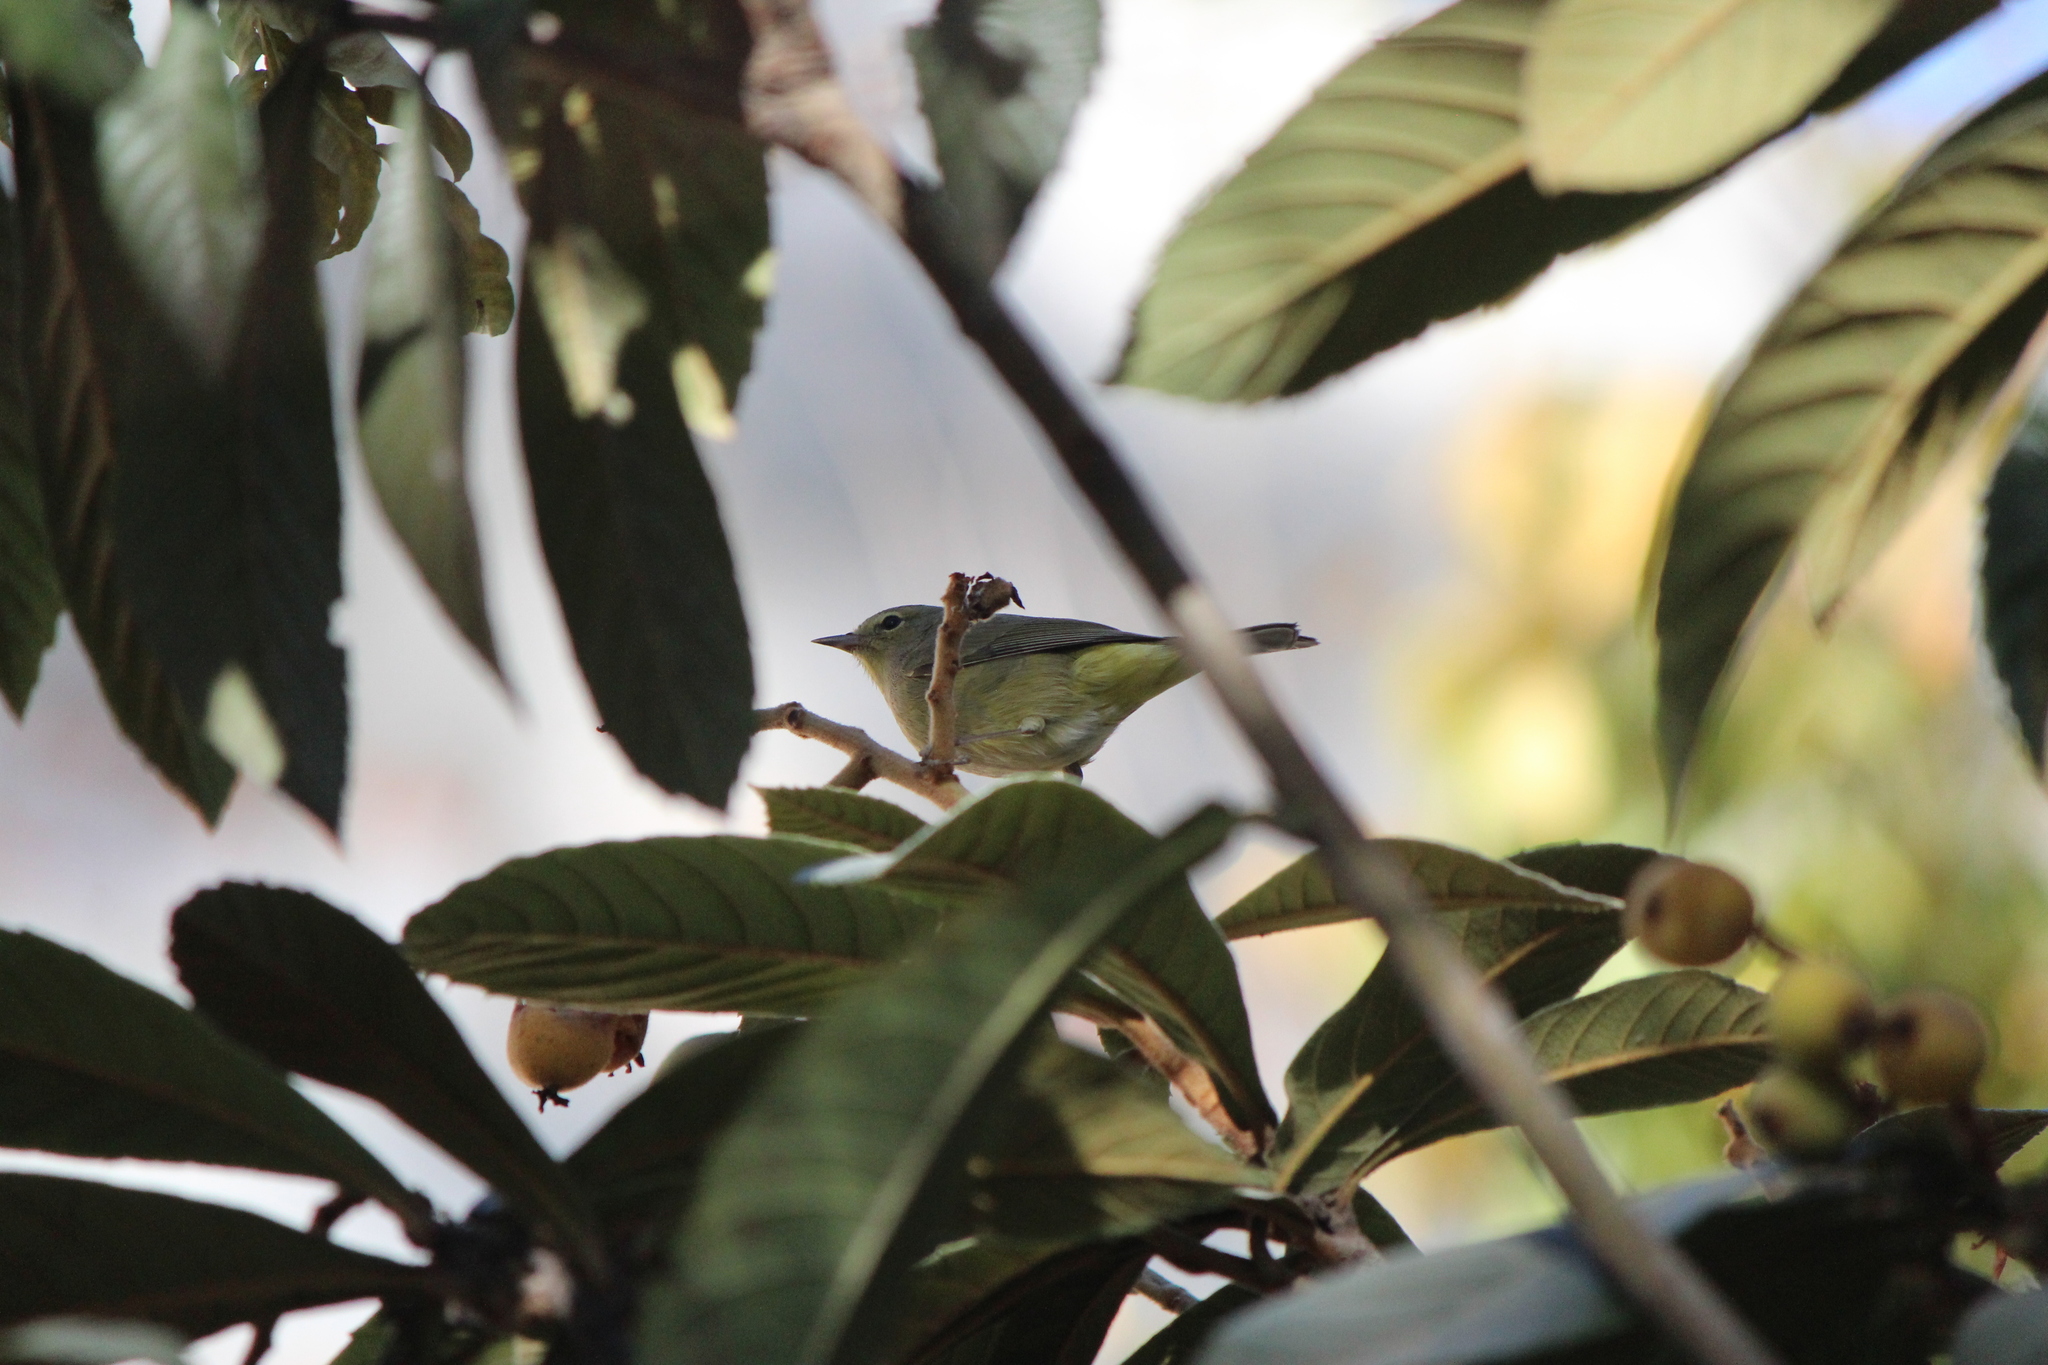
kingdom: Animalia
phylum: Chordata
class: Aves
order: Passeriformes
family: Parulidae
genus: Leiothlypis
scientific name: Leiothlypis celata
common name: Orange-crowned warbler
